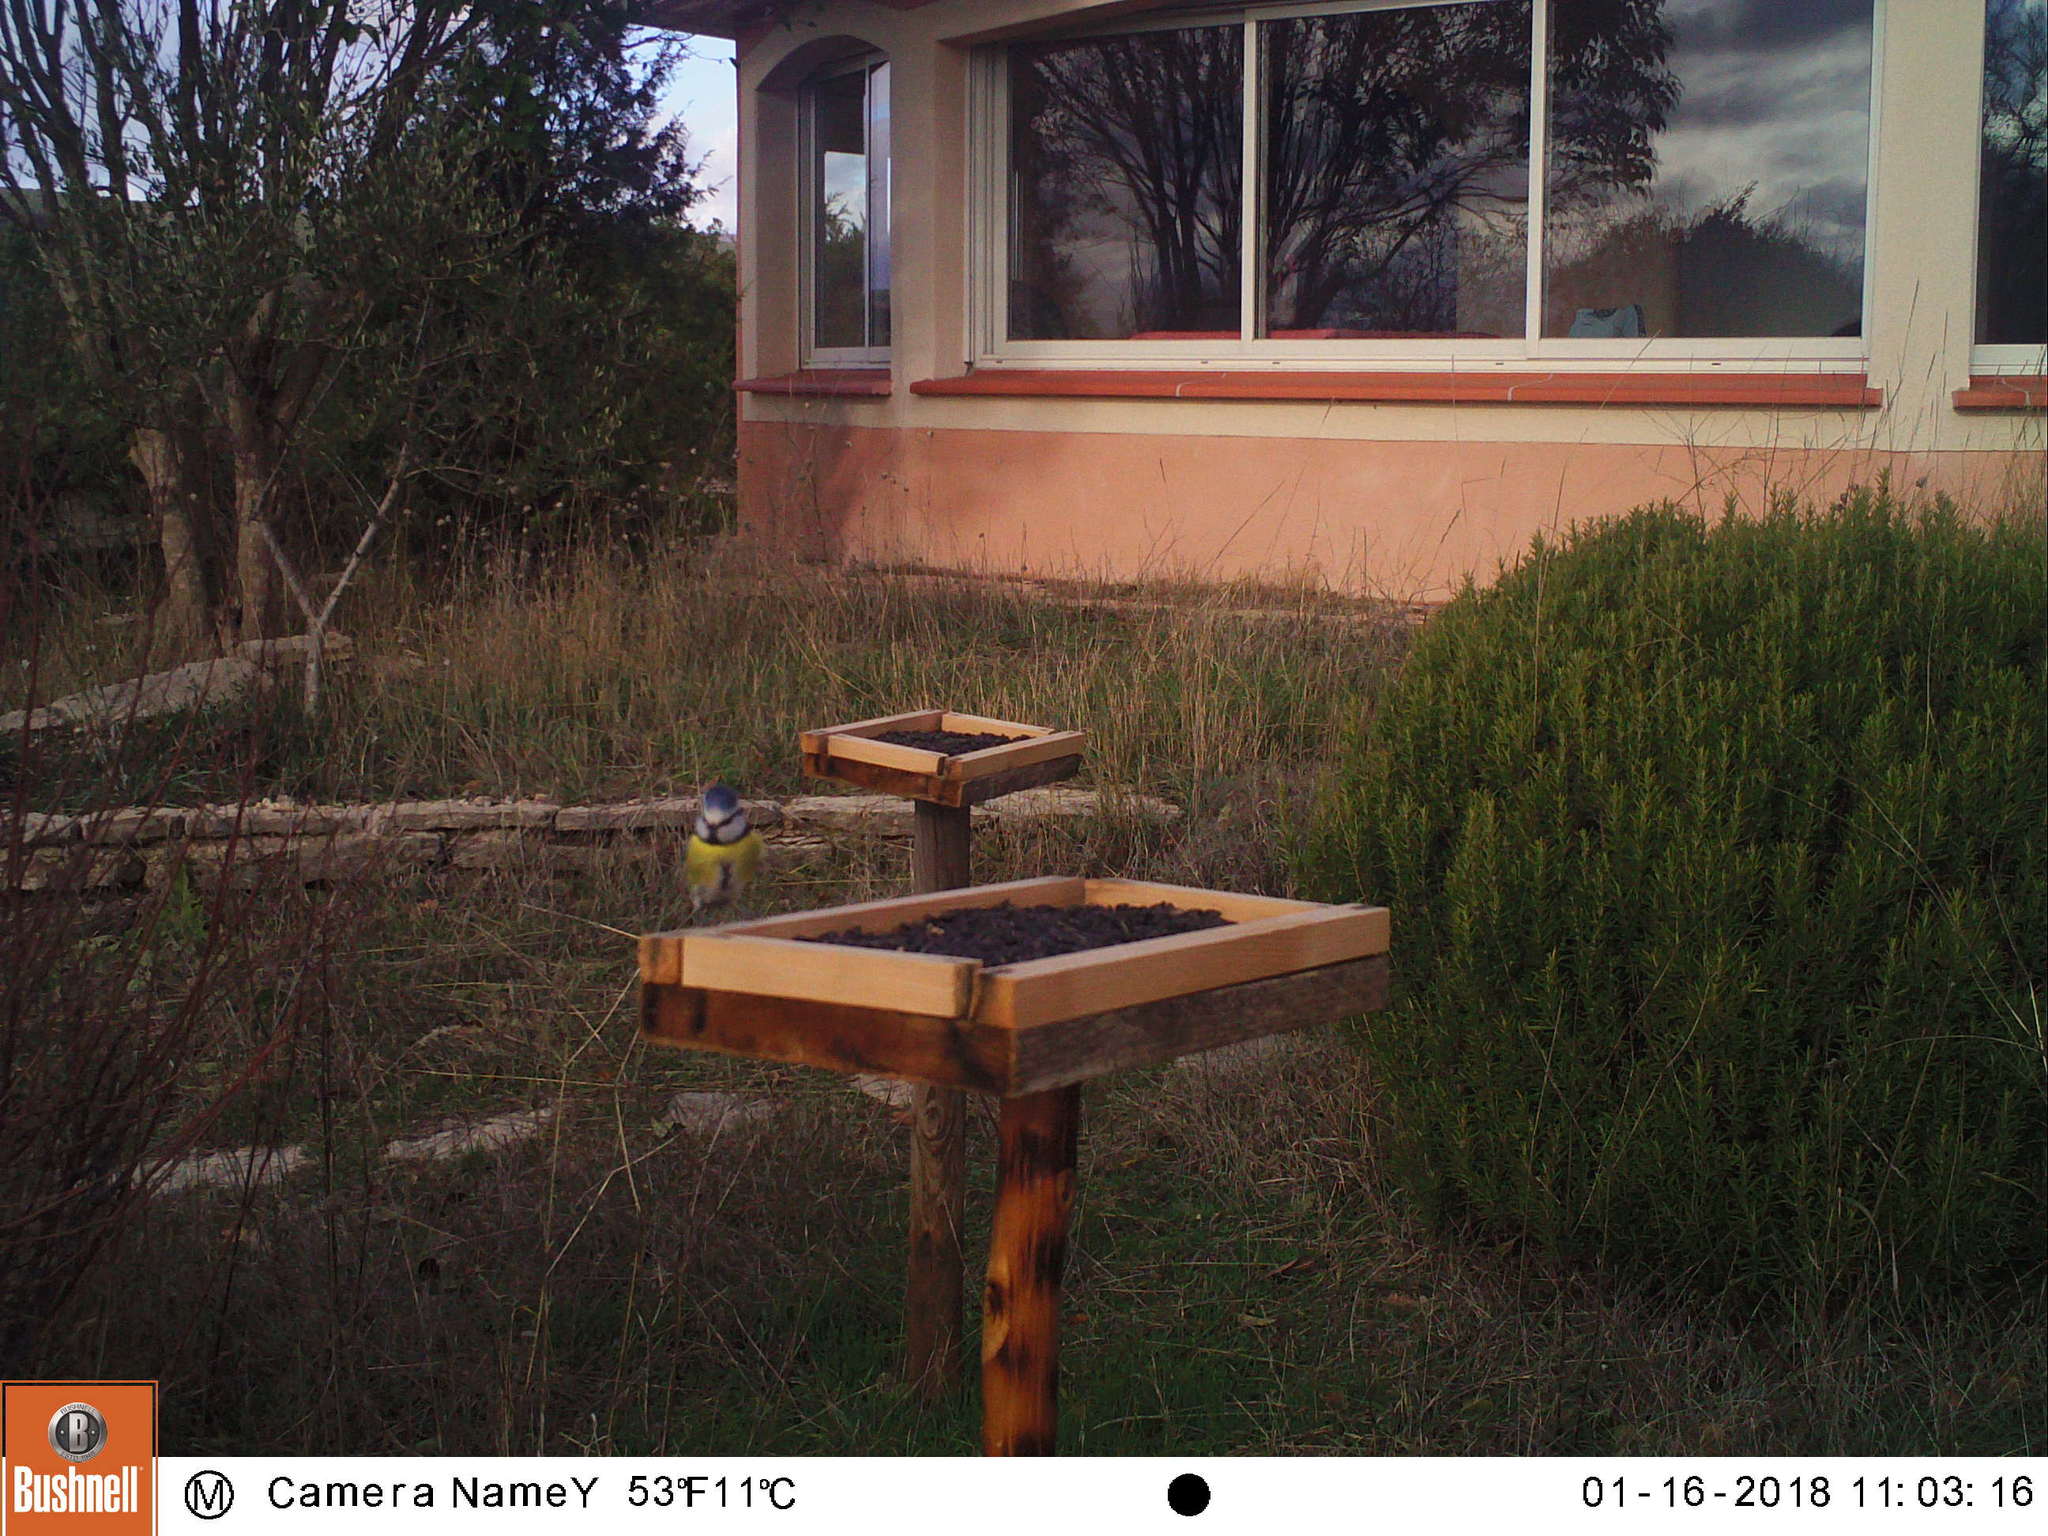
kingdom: Animalia
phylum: Chordata
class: Aves
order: Passeriformes
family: Paridae
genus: Cyanistes
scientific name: Cyanistes caeruleus
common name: Eurasian blue tit
